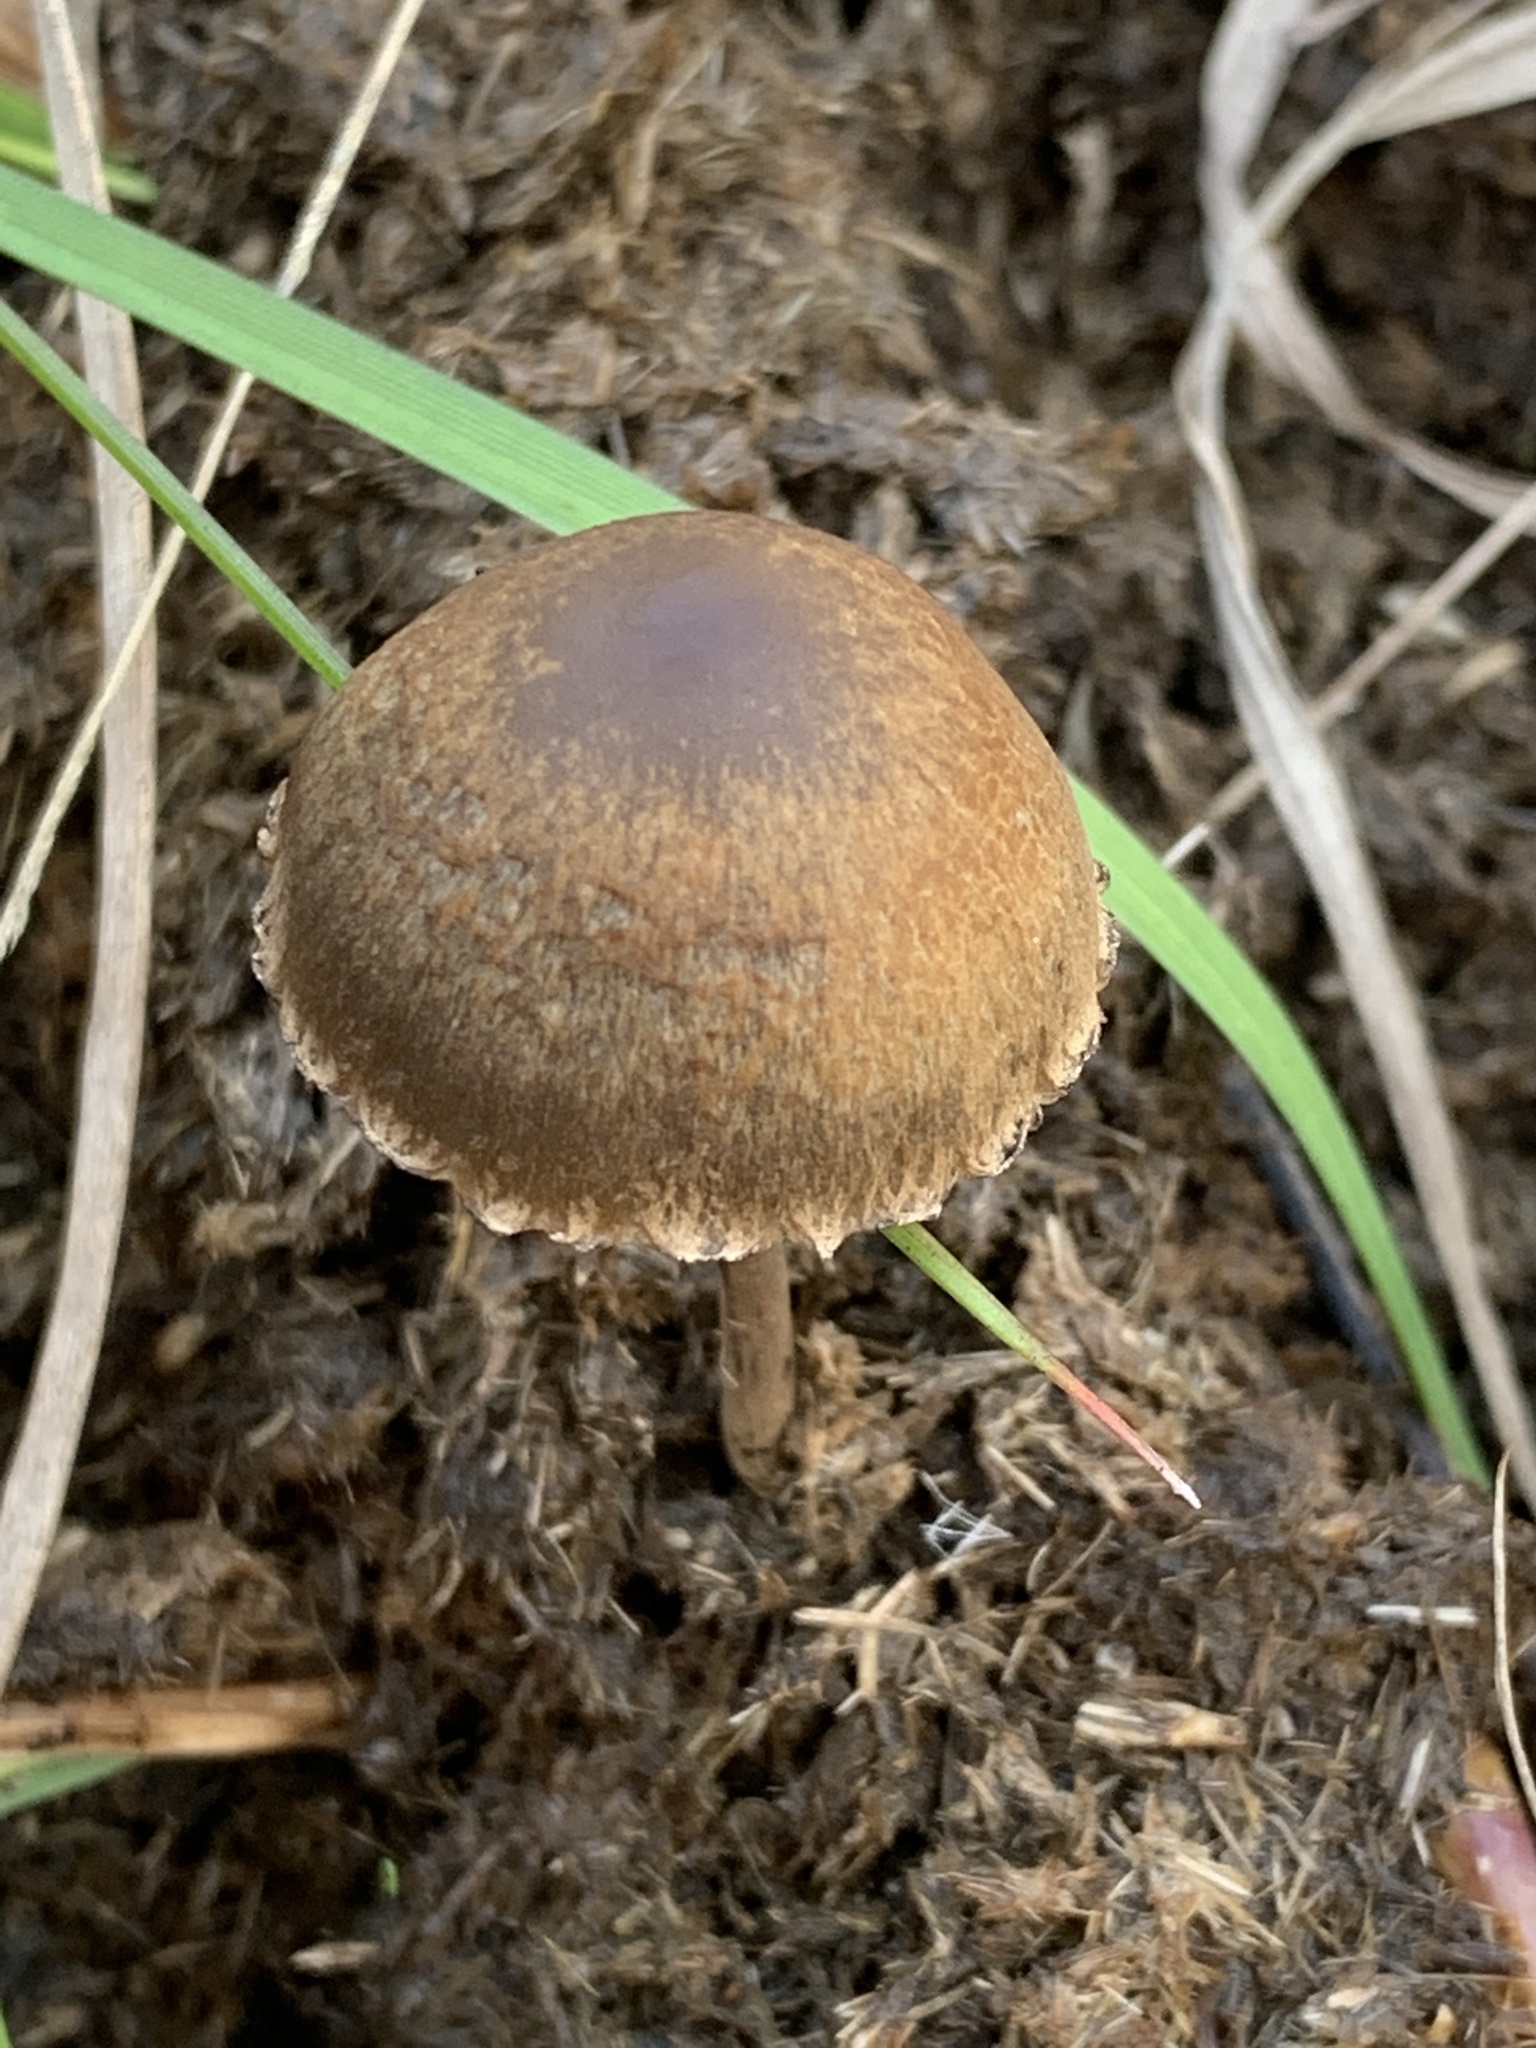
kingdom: Fungi
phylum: Basidiomycota
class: Agaricomycetes
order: Agaricales
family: Bolbitiaceae
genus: Panaeolus
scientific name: Panaeolus papilionaceus
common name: Petticoat mottlegill
